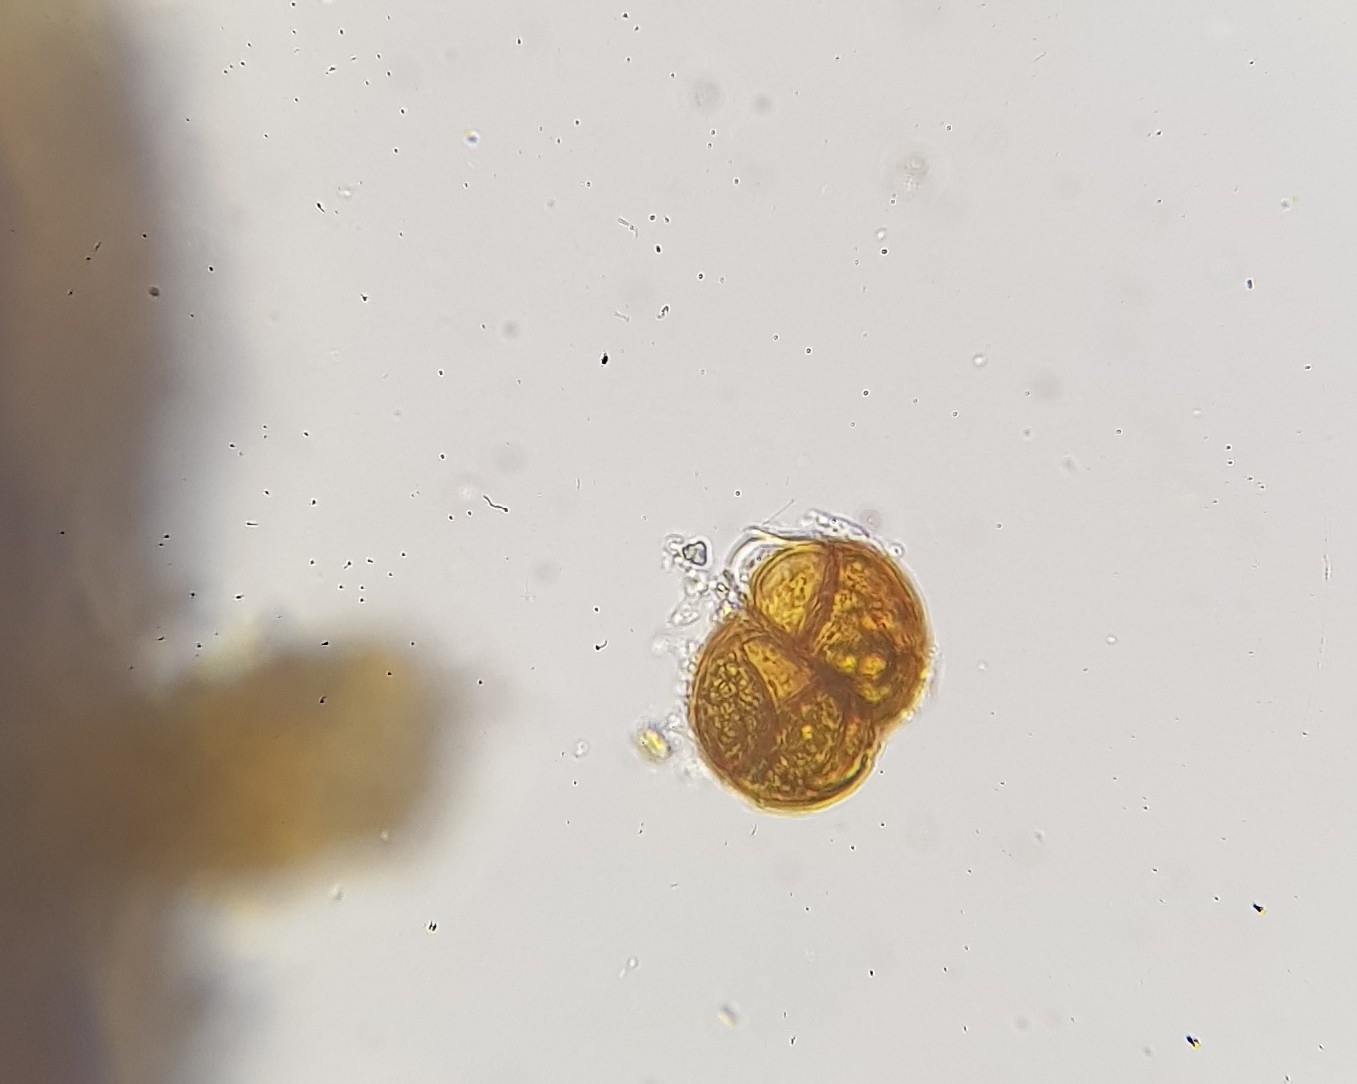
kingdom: Plantae
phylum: Bryophyta
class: Bryopsida
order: Pottiales
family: Pottiaceae
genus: Didymodon
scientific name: Didymodon rigidulus
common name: Rigid beard-moss
